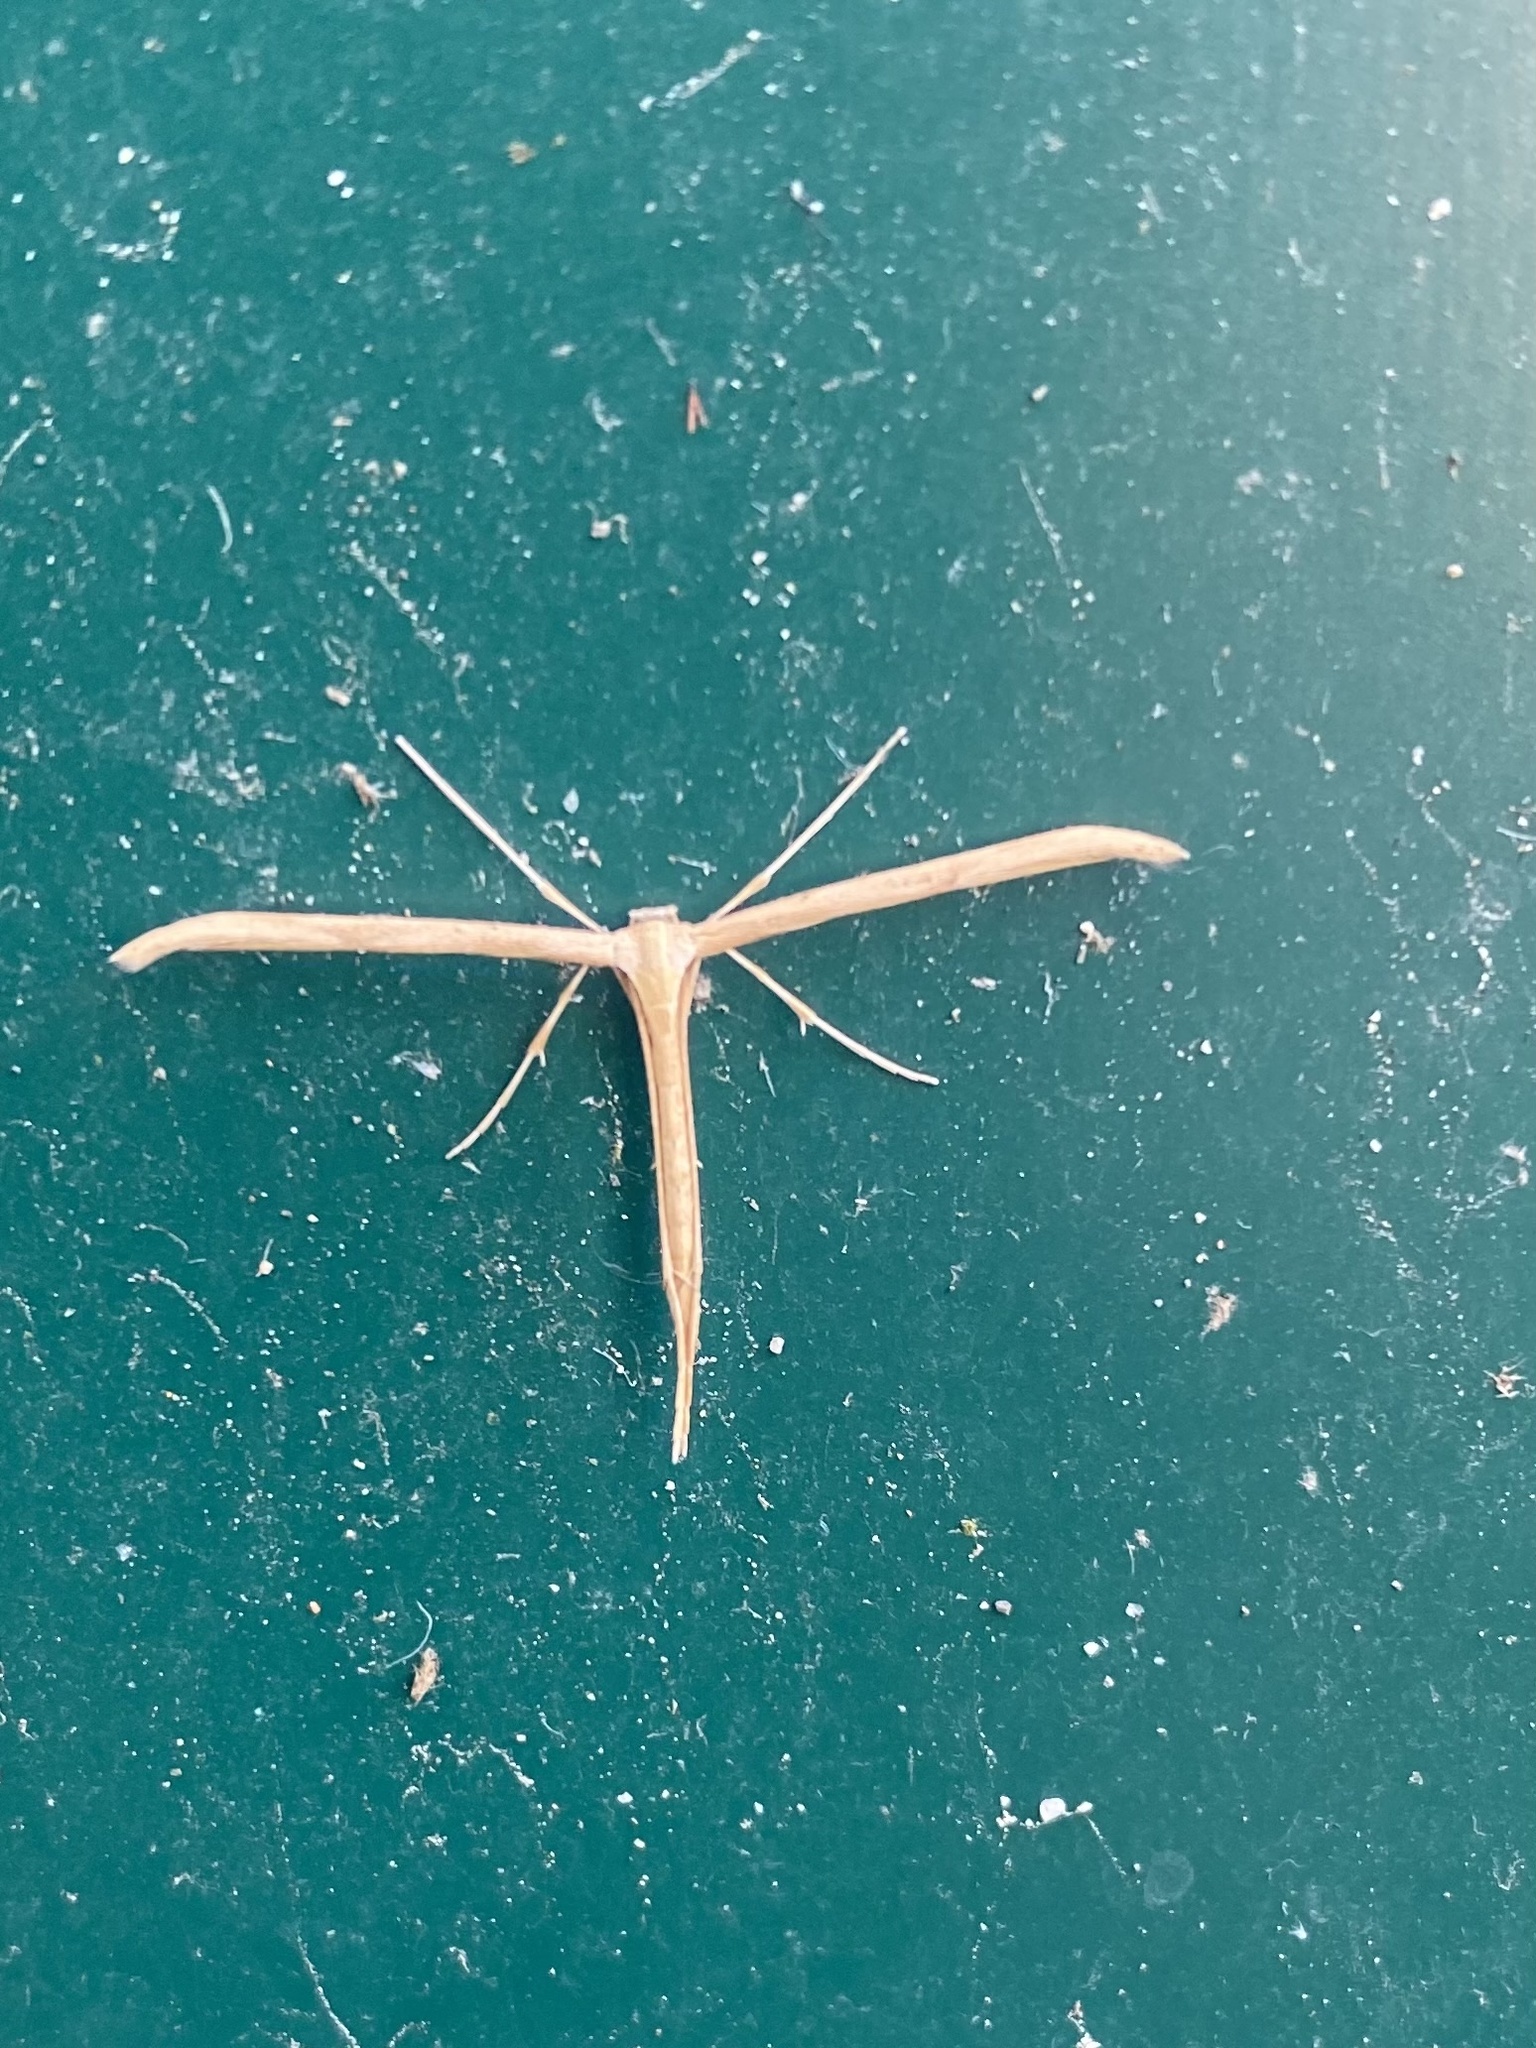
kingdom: Animalia
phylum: Arthropoda
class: Insecta
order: Lepidoptera
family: Pterophoridae
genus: Emmelina
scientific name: Emmelina monodactyla
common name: Common plume
